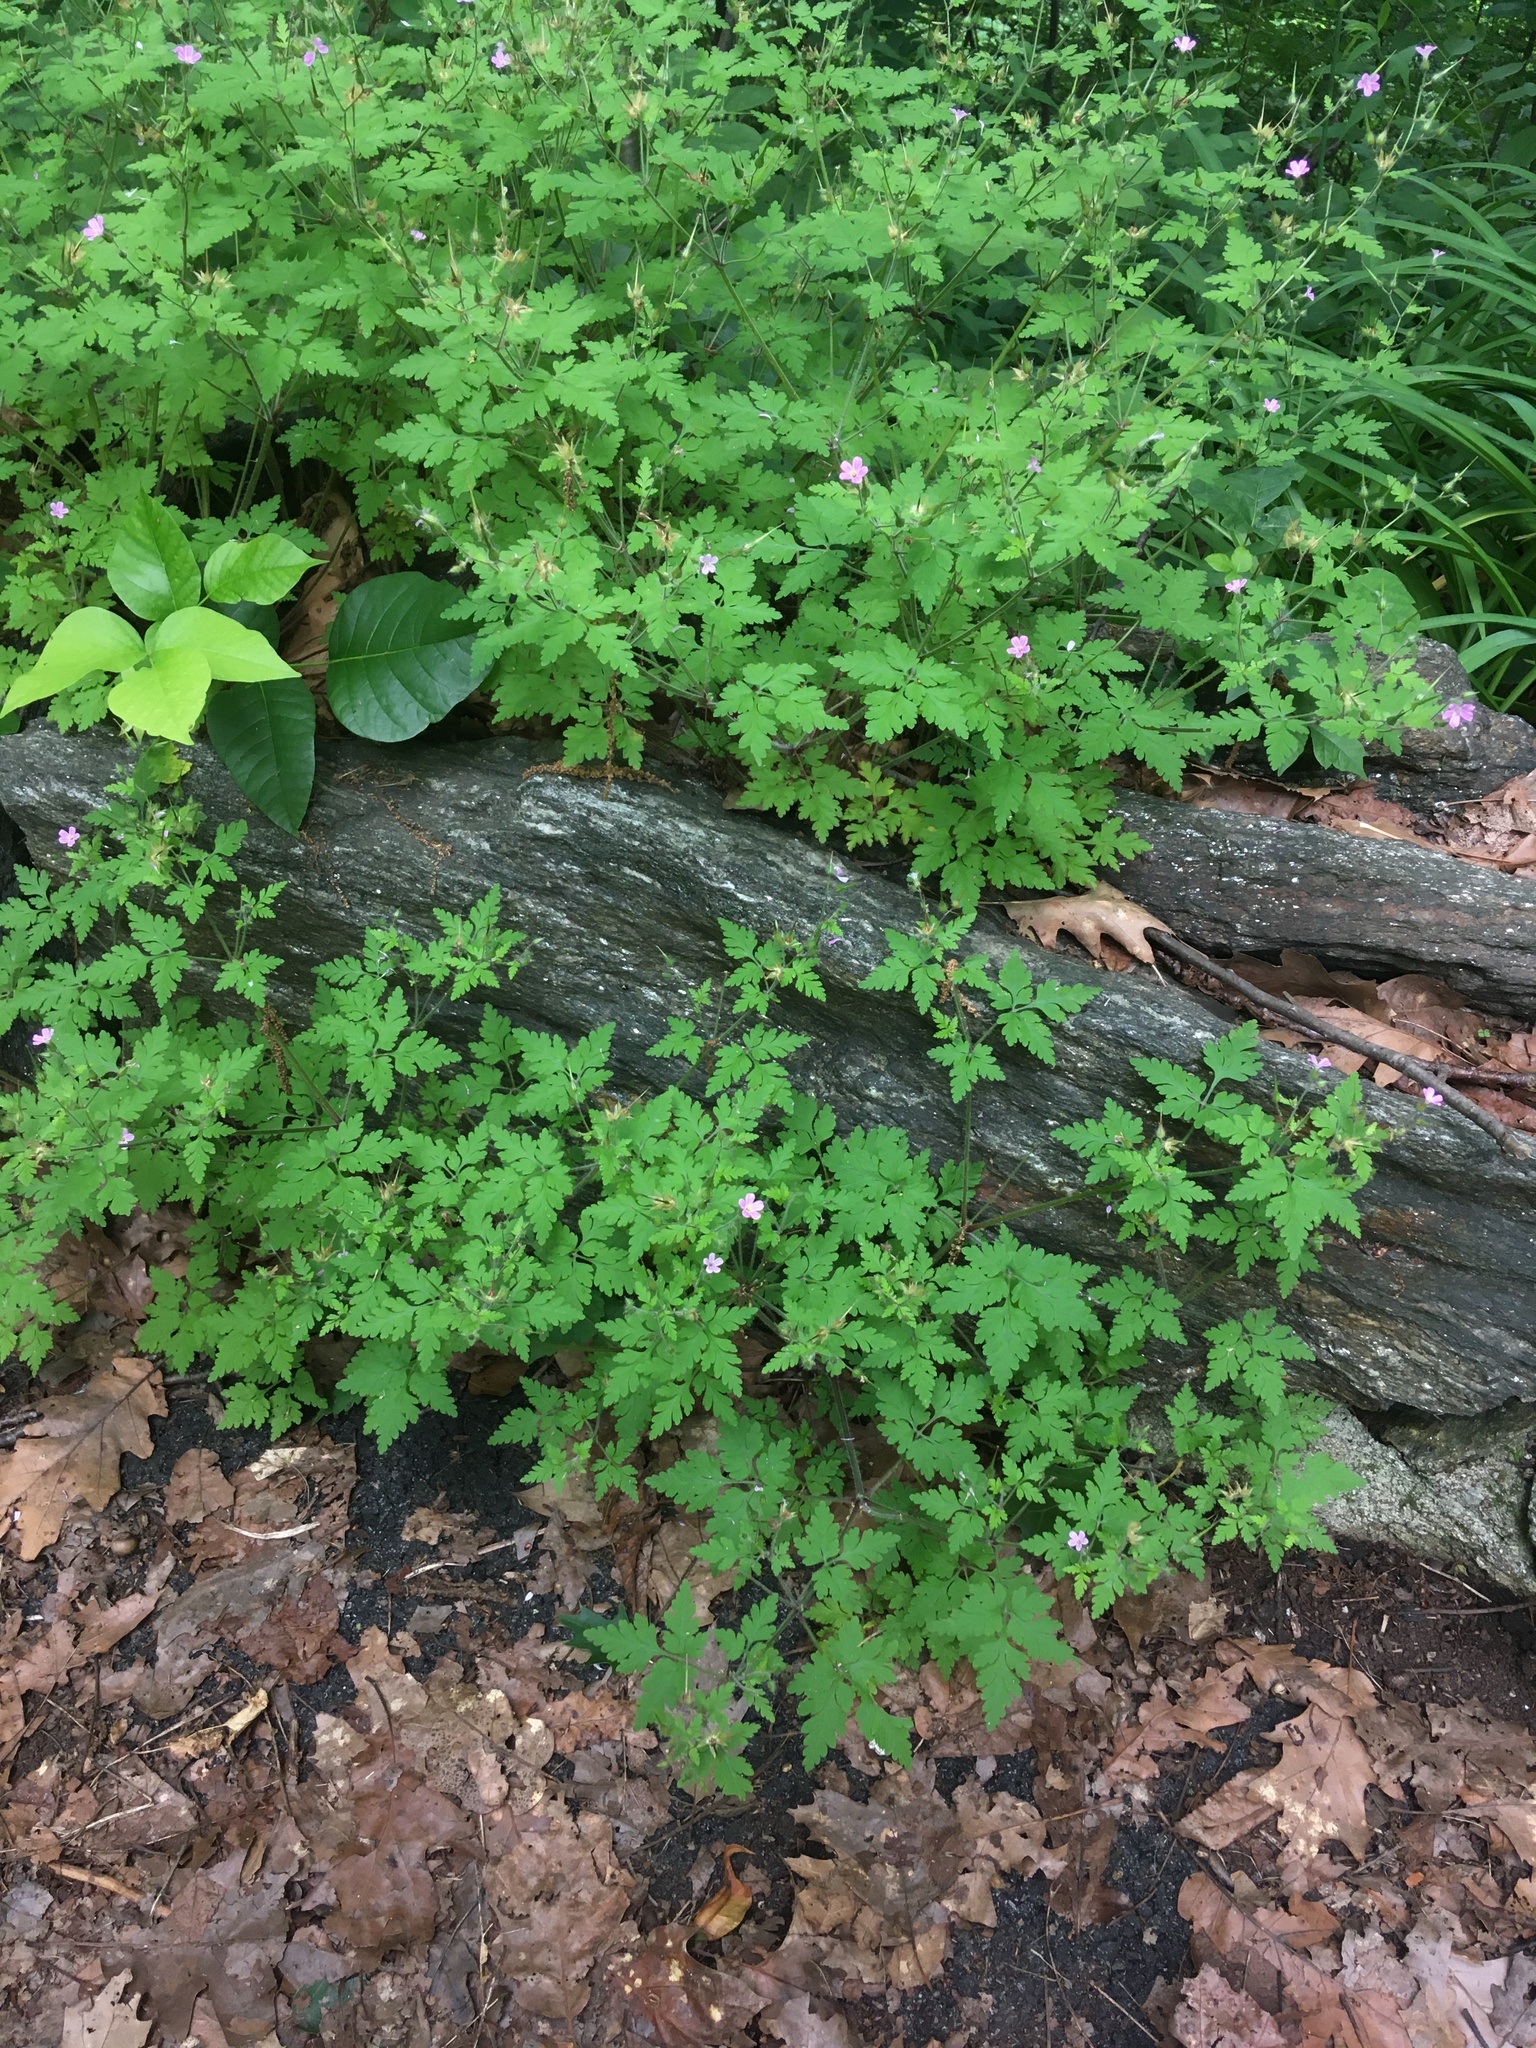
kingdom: Plantae
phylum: Tracheophyta
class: Magnoliopsida
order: Geraniales
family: Geraniaceae
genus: Geranium
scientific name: Geranium robertianum
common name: Herb-robert
